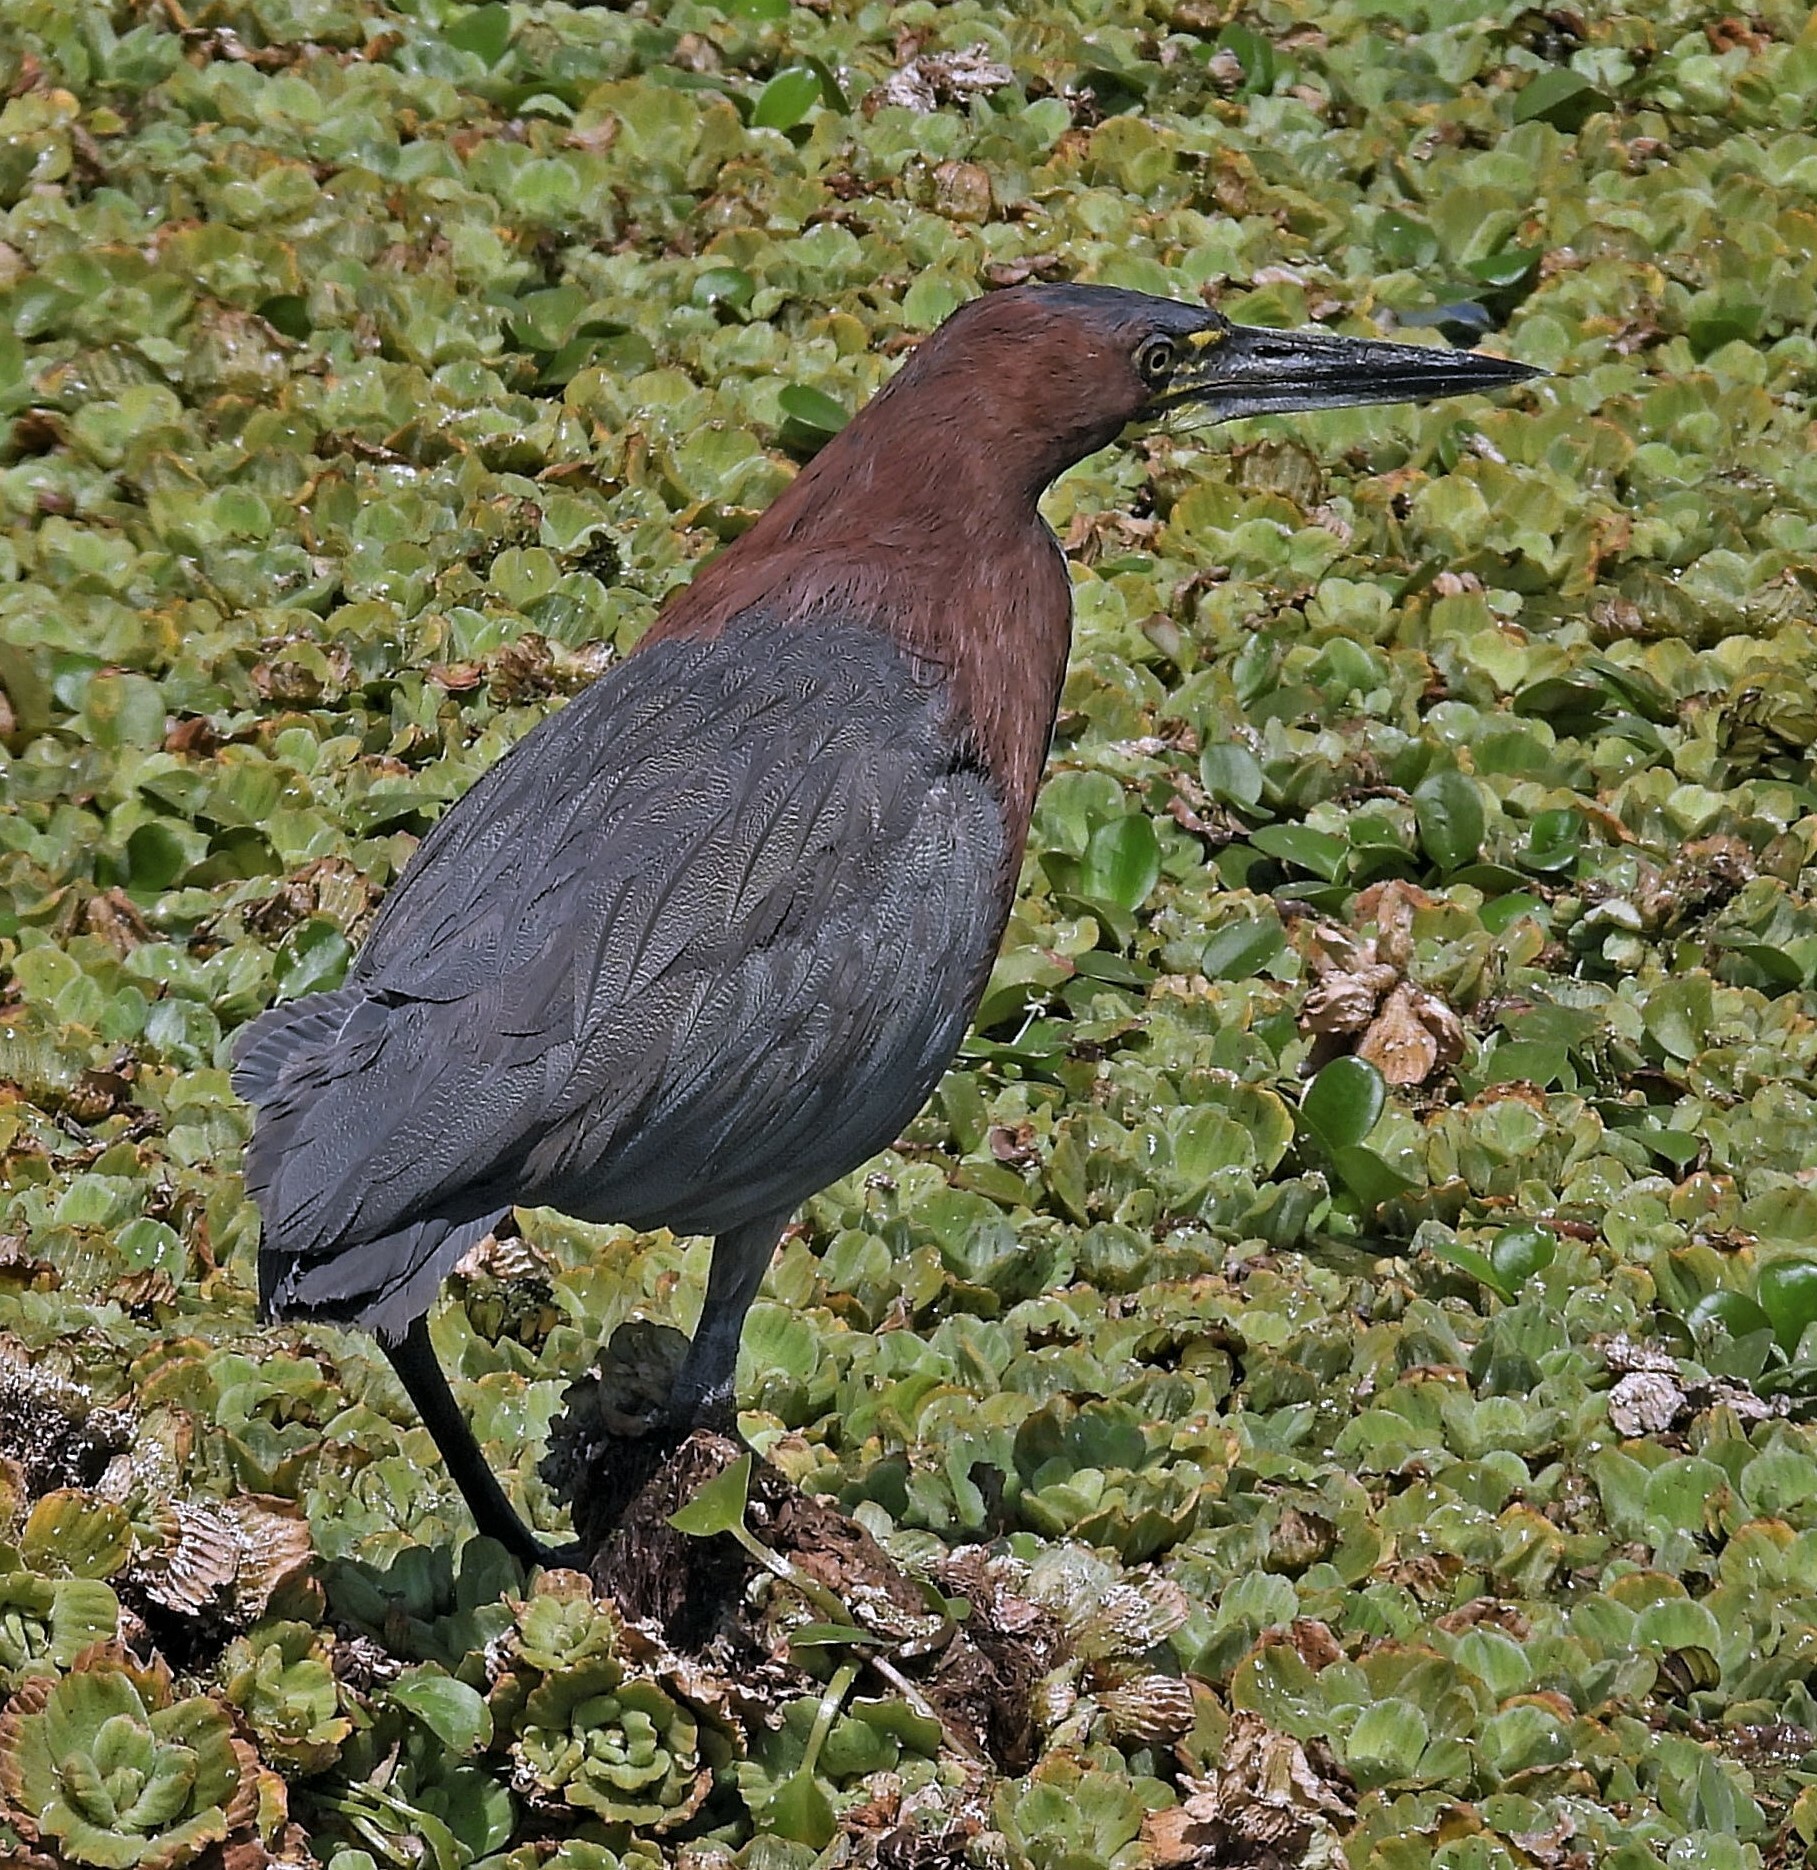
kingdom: Animalia
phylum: Chordata
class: Aves
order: Pelecaniformes
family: Ardeidae
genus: Tigrisoma
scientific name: Tigrisoma lineatum
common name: Rufescent tiger-heron
